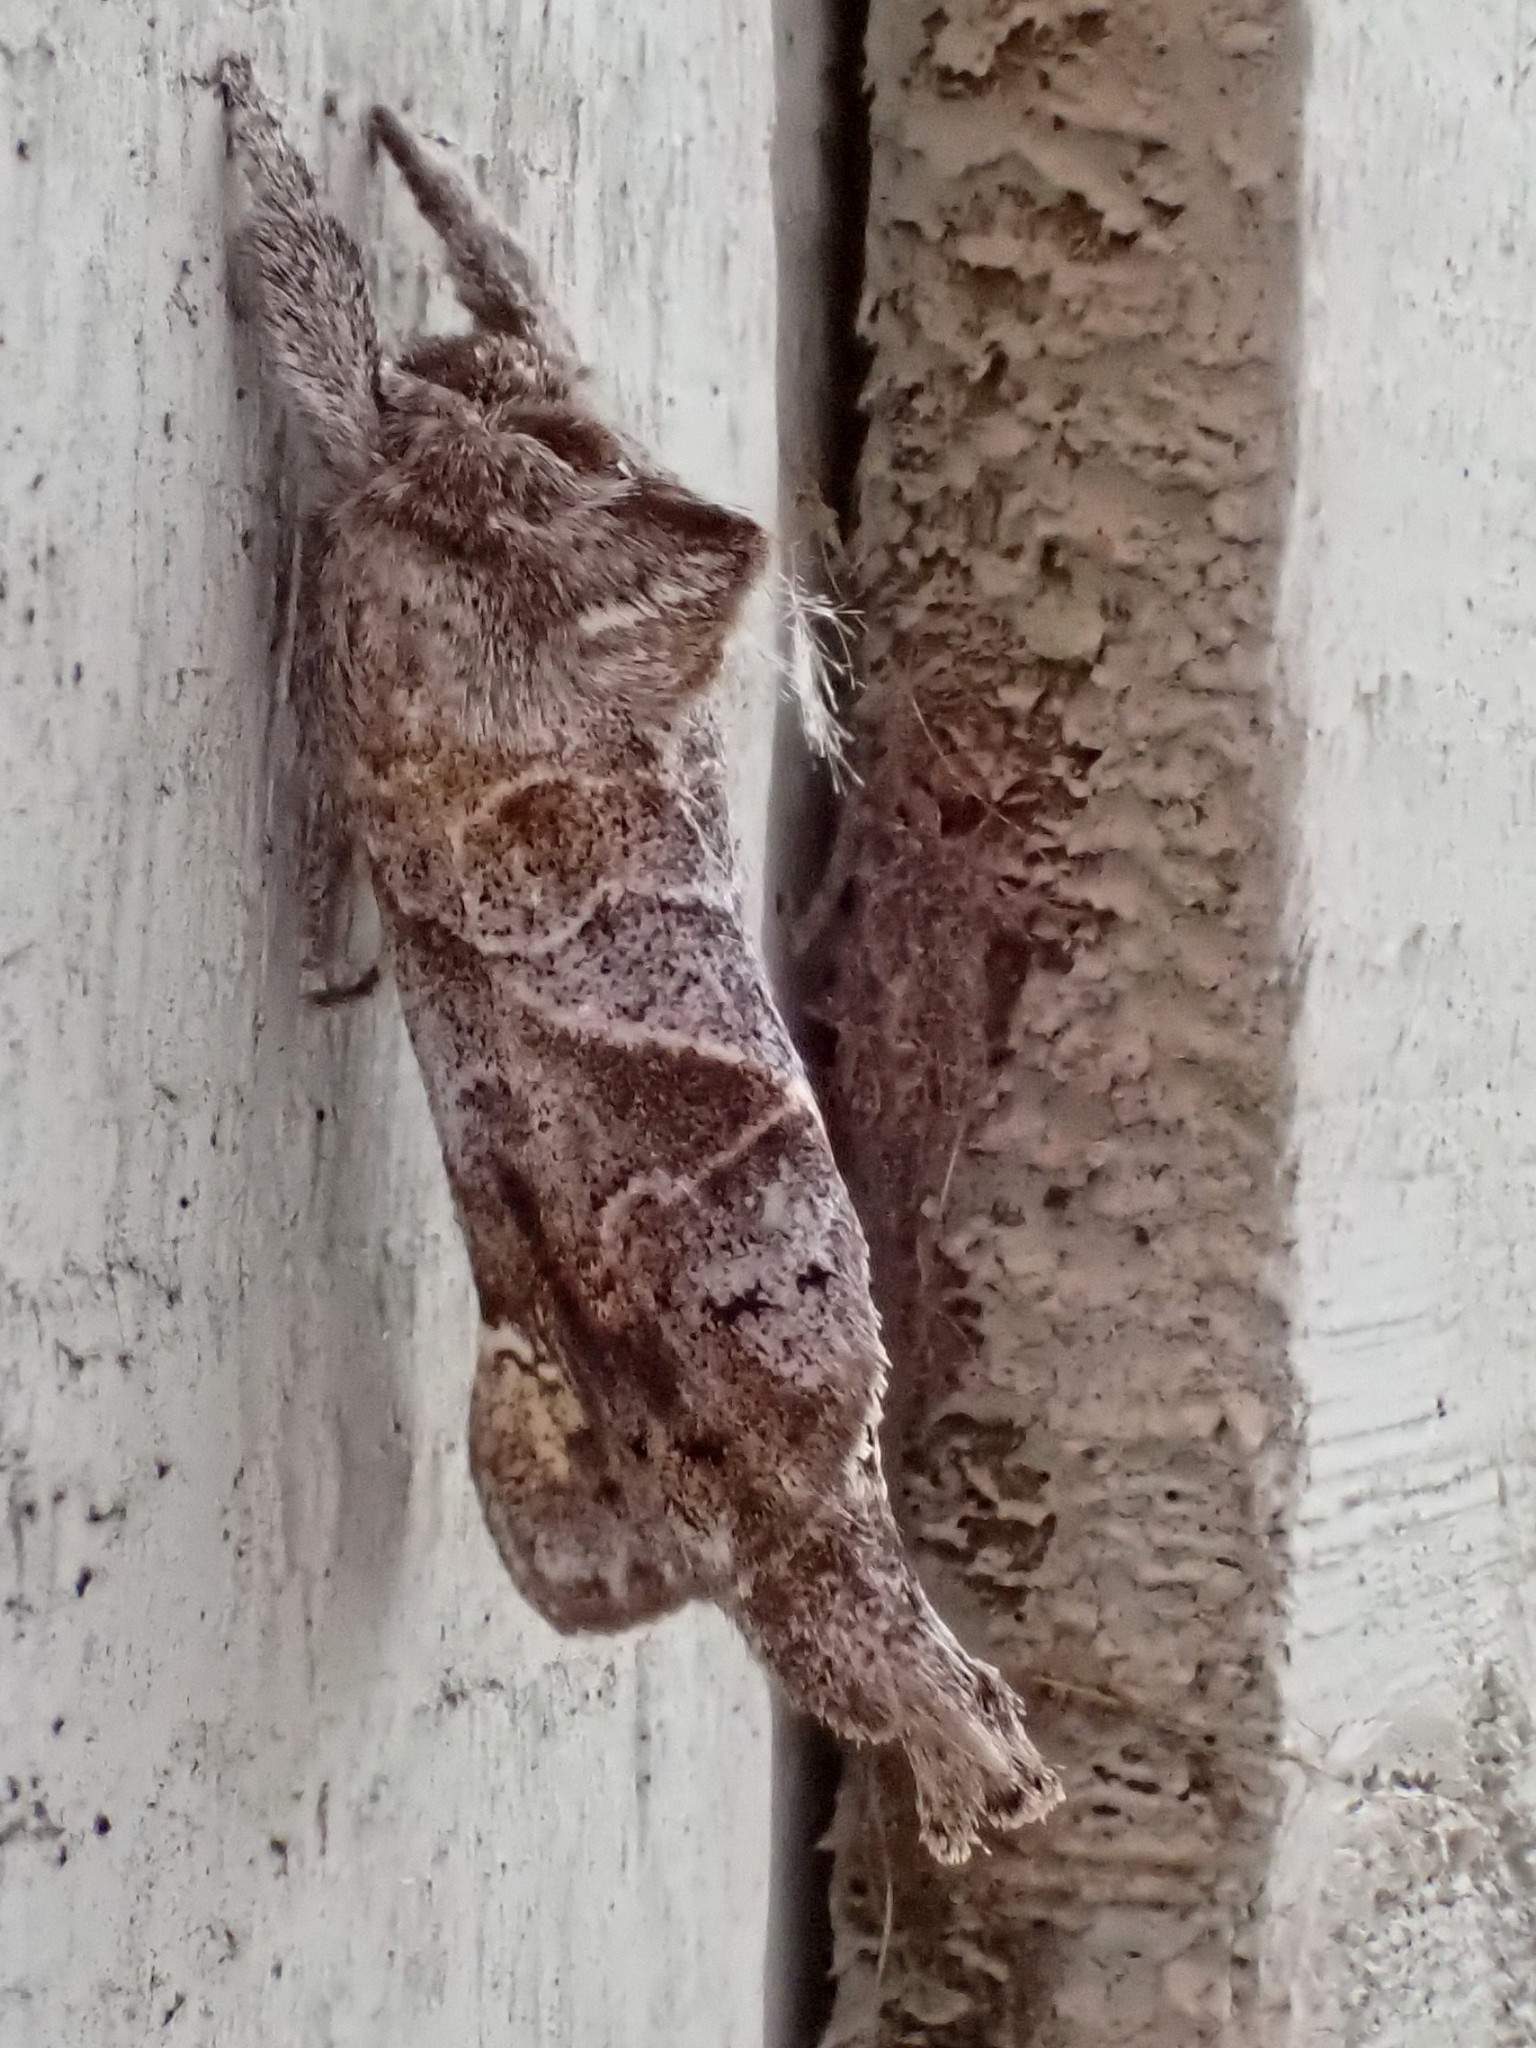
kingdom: Animalia
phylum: Arthropoda
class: Insecta
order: Lepidoptera
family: Notodontidae
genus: Clostera
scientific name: Clostera strigosa
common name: Striped chocolate-tip moth
